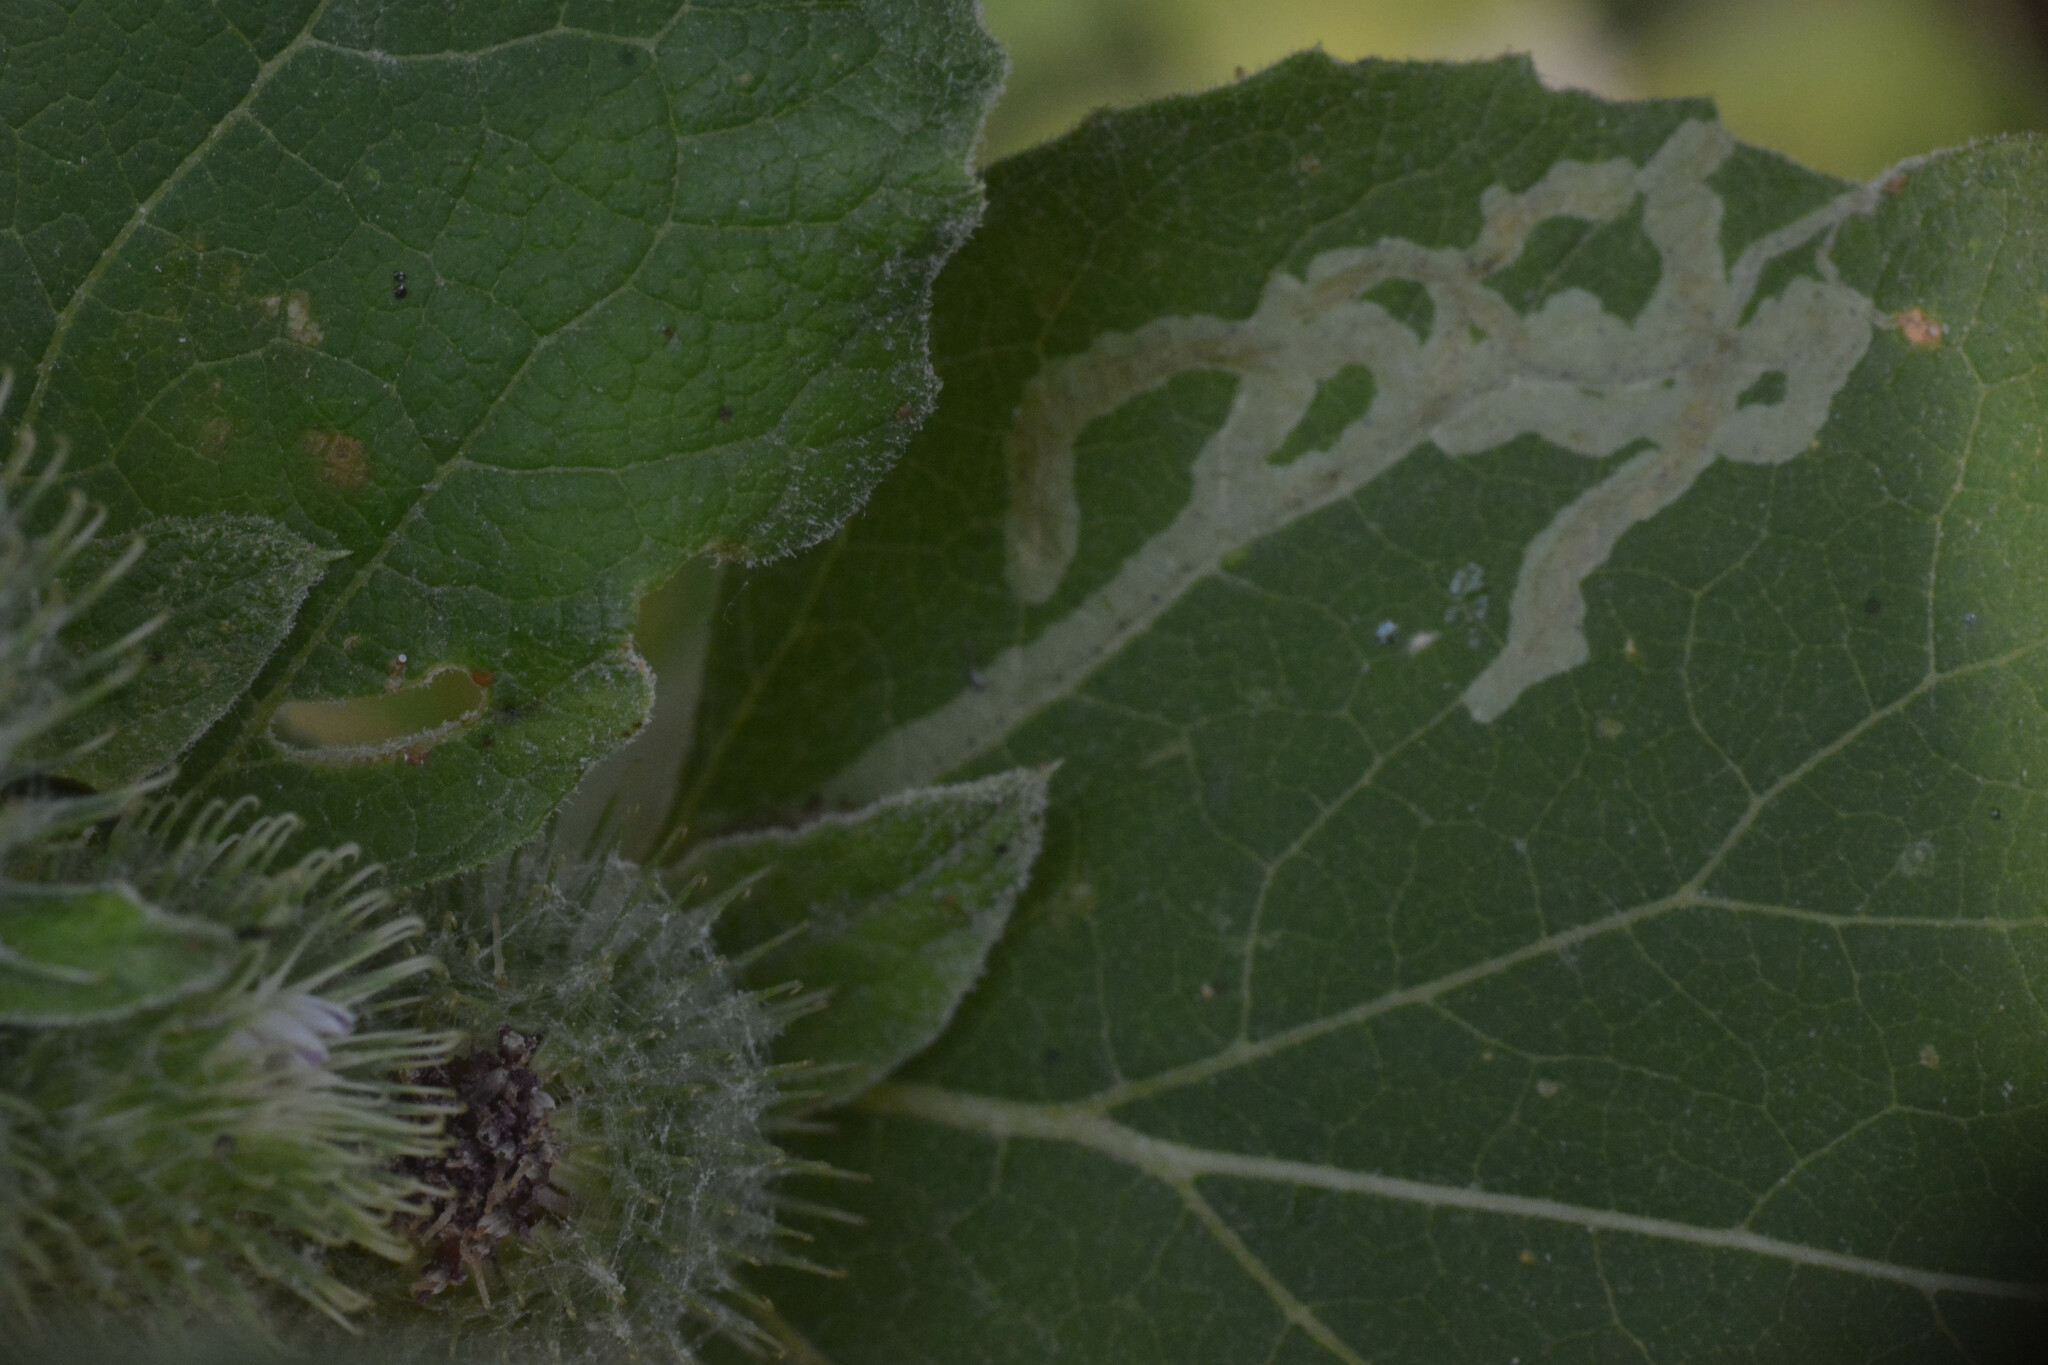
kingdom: Animalia
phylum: Arthropoda
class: Insecta
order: Diptera
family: Agromyzidae
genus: Phytomyza
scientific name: Phytomyza lappae
